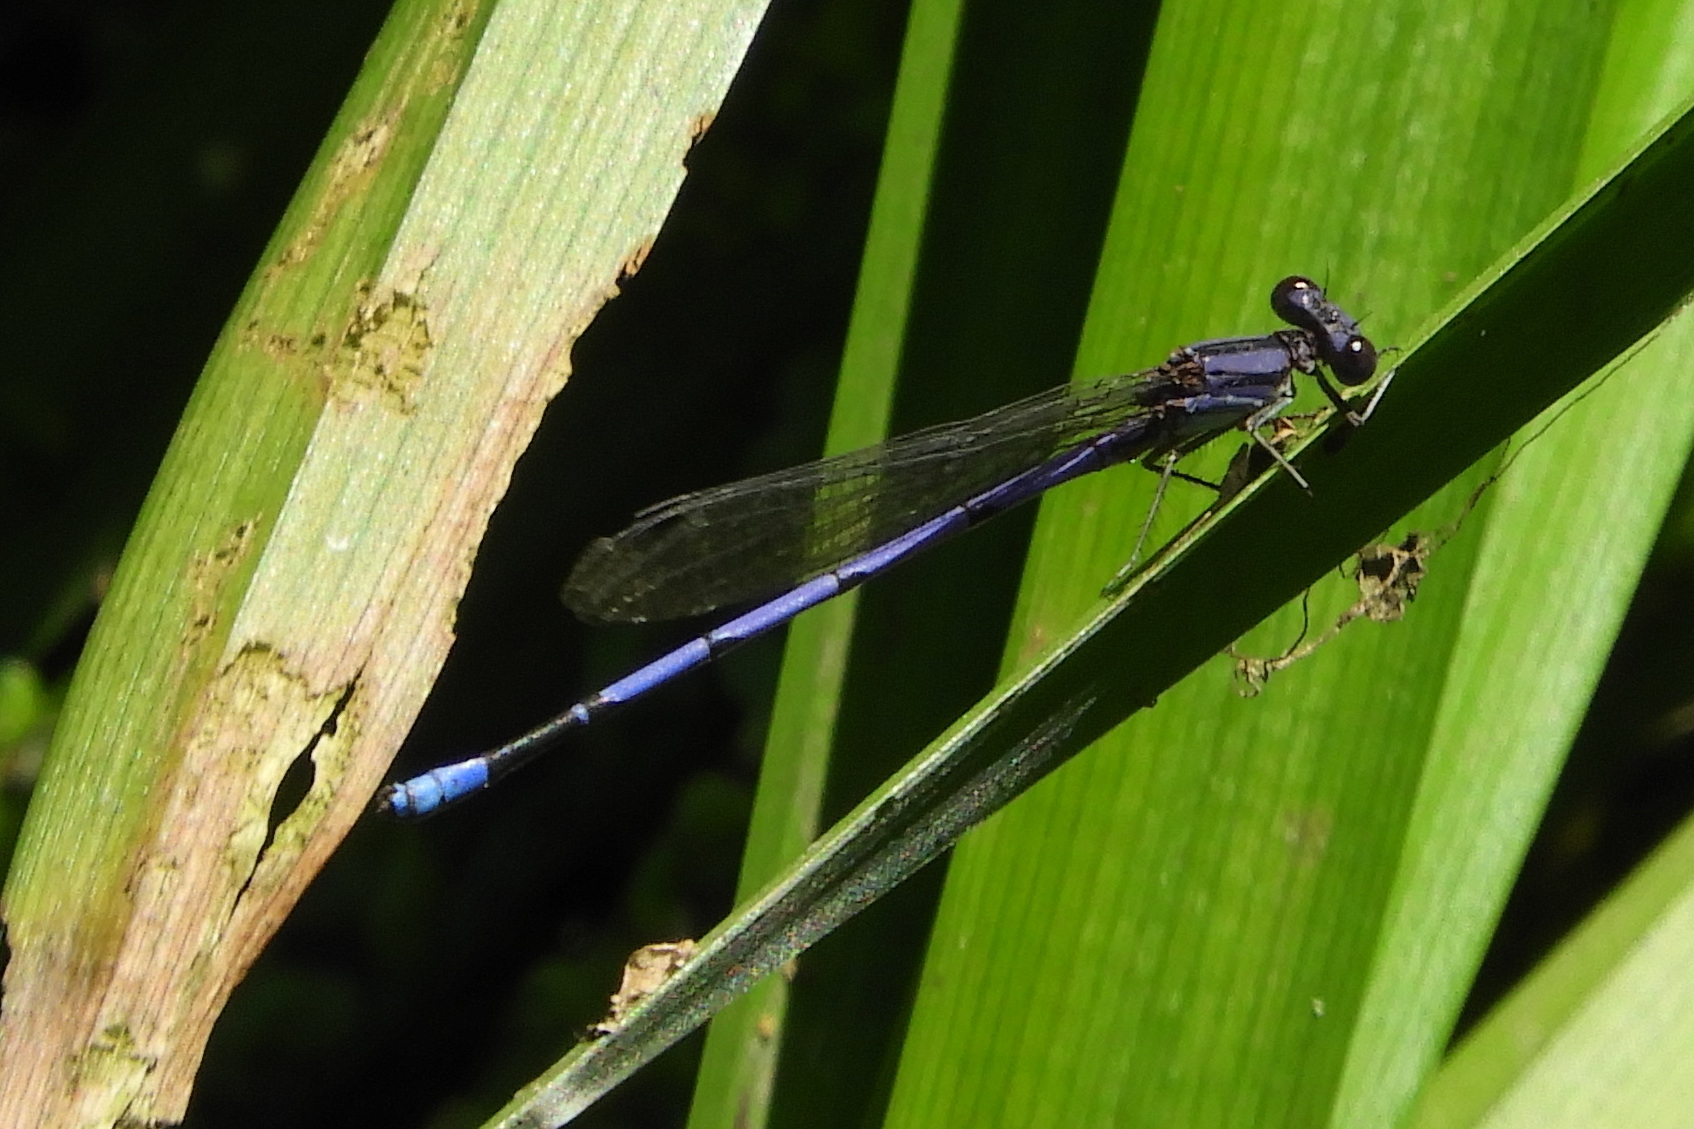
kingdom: Animalia
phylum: Arthropoda
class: Insecta
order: Odonata
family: Coenagrionidae
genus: Argia
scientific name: Argia fumipennis
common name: Variable dancer
